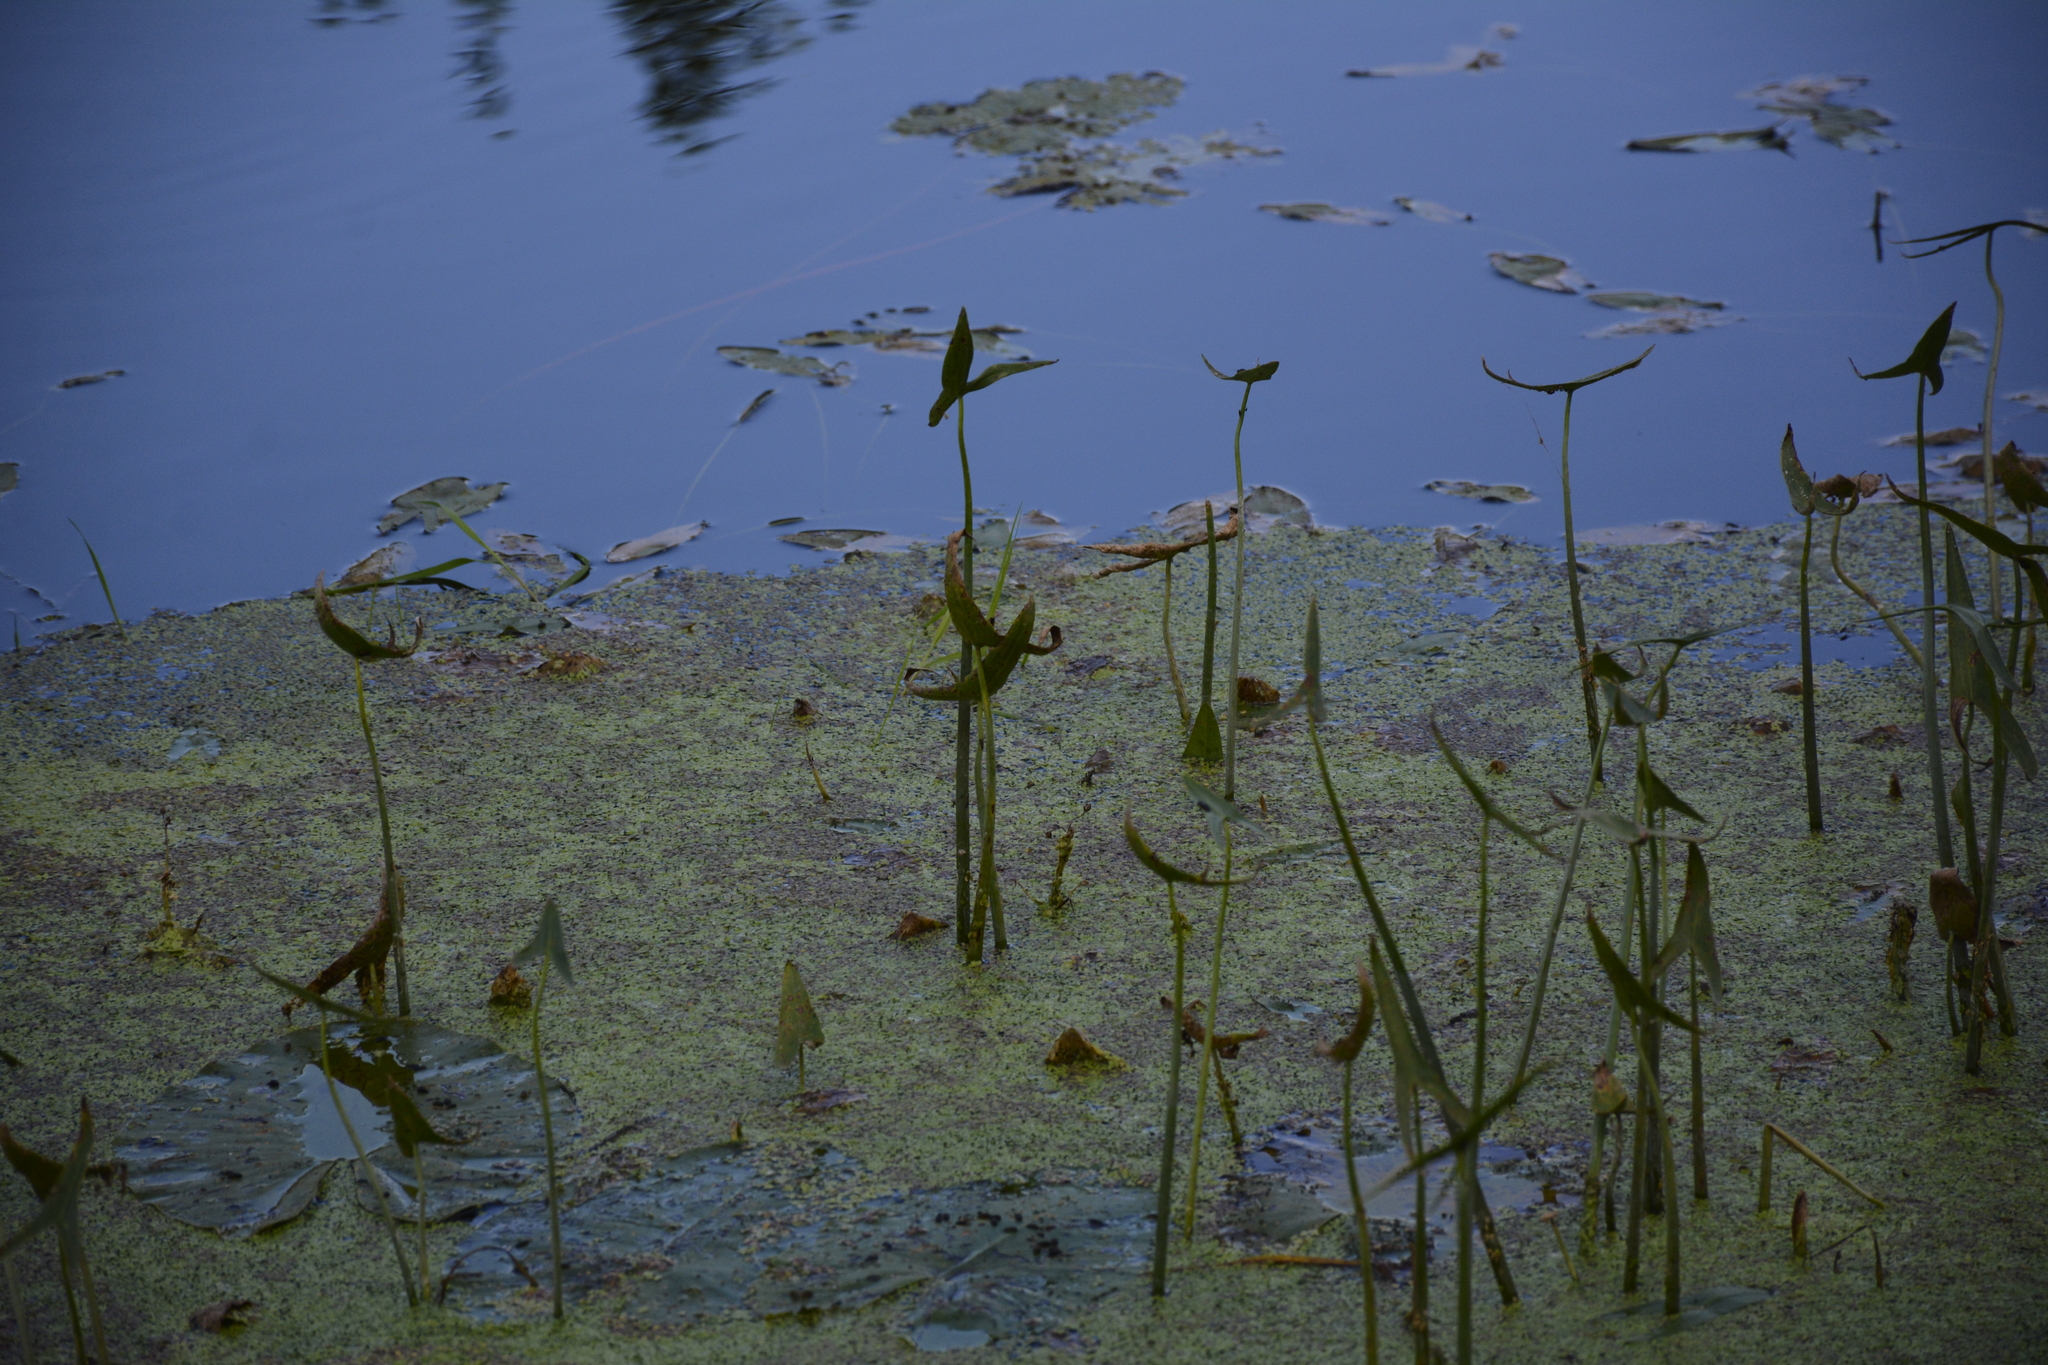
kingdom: Plantae
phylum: Tracheophyta
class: Liliopsida
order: Alismatales
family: Alismataceae
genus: Sagittaria
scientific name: Sagittaria sagittifolia
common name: Arrowhead
